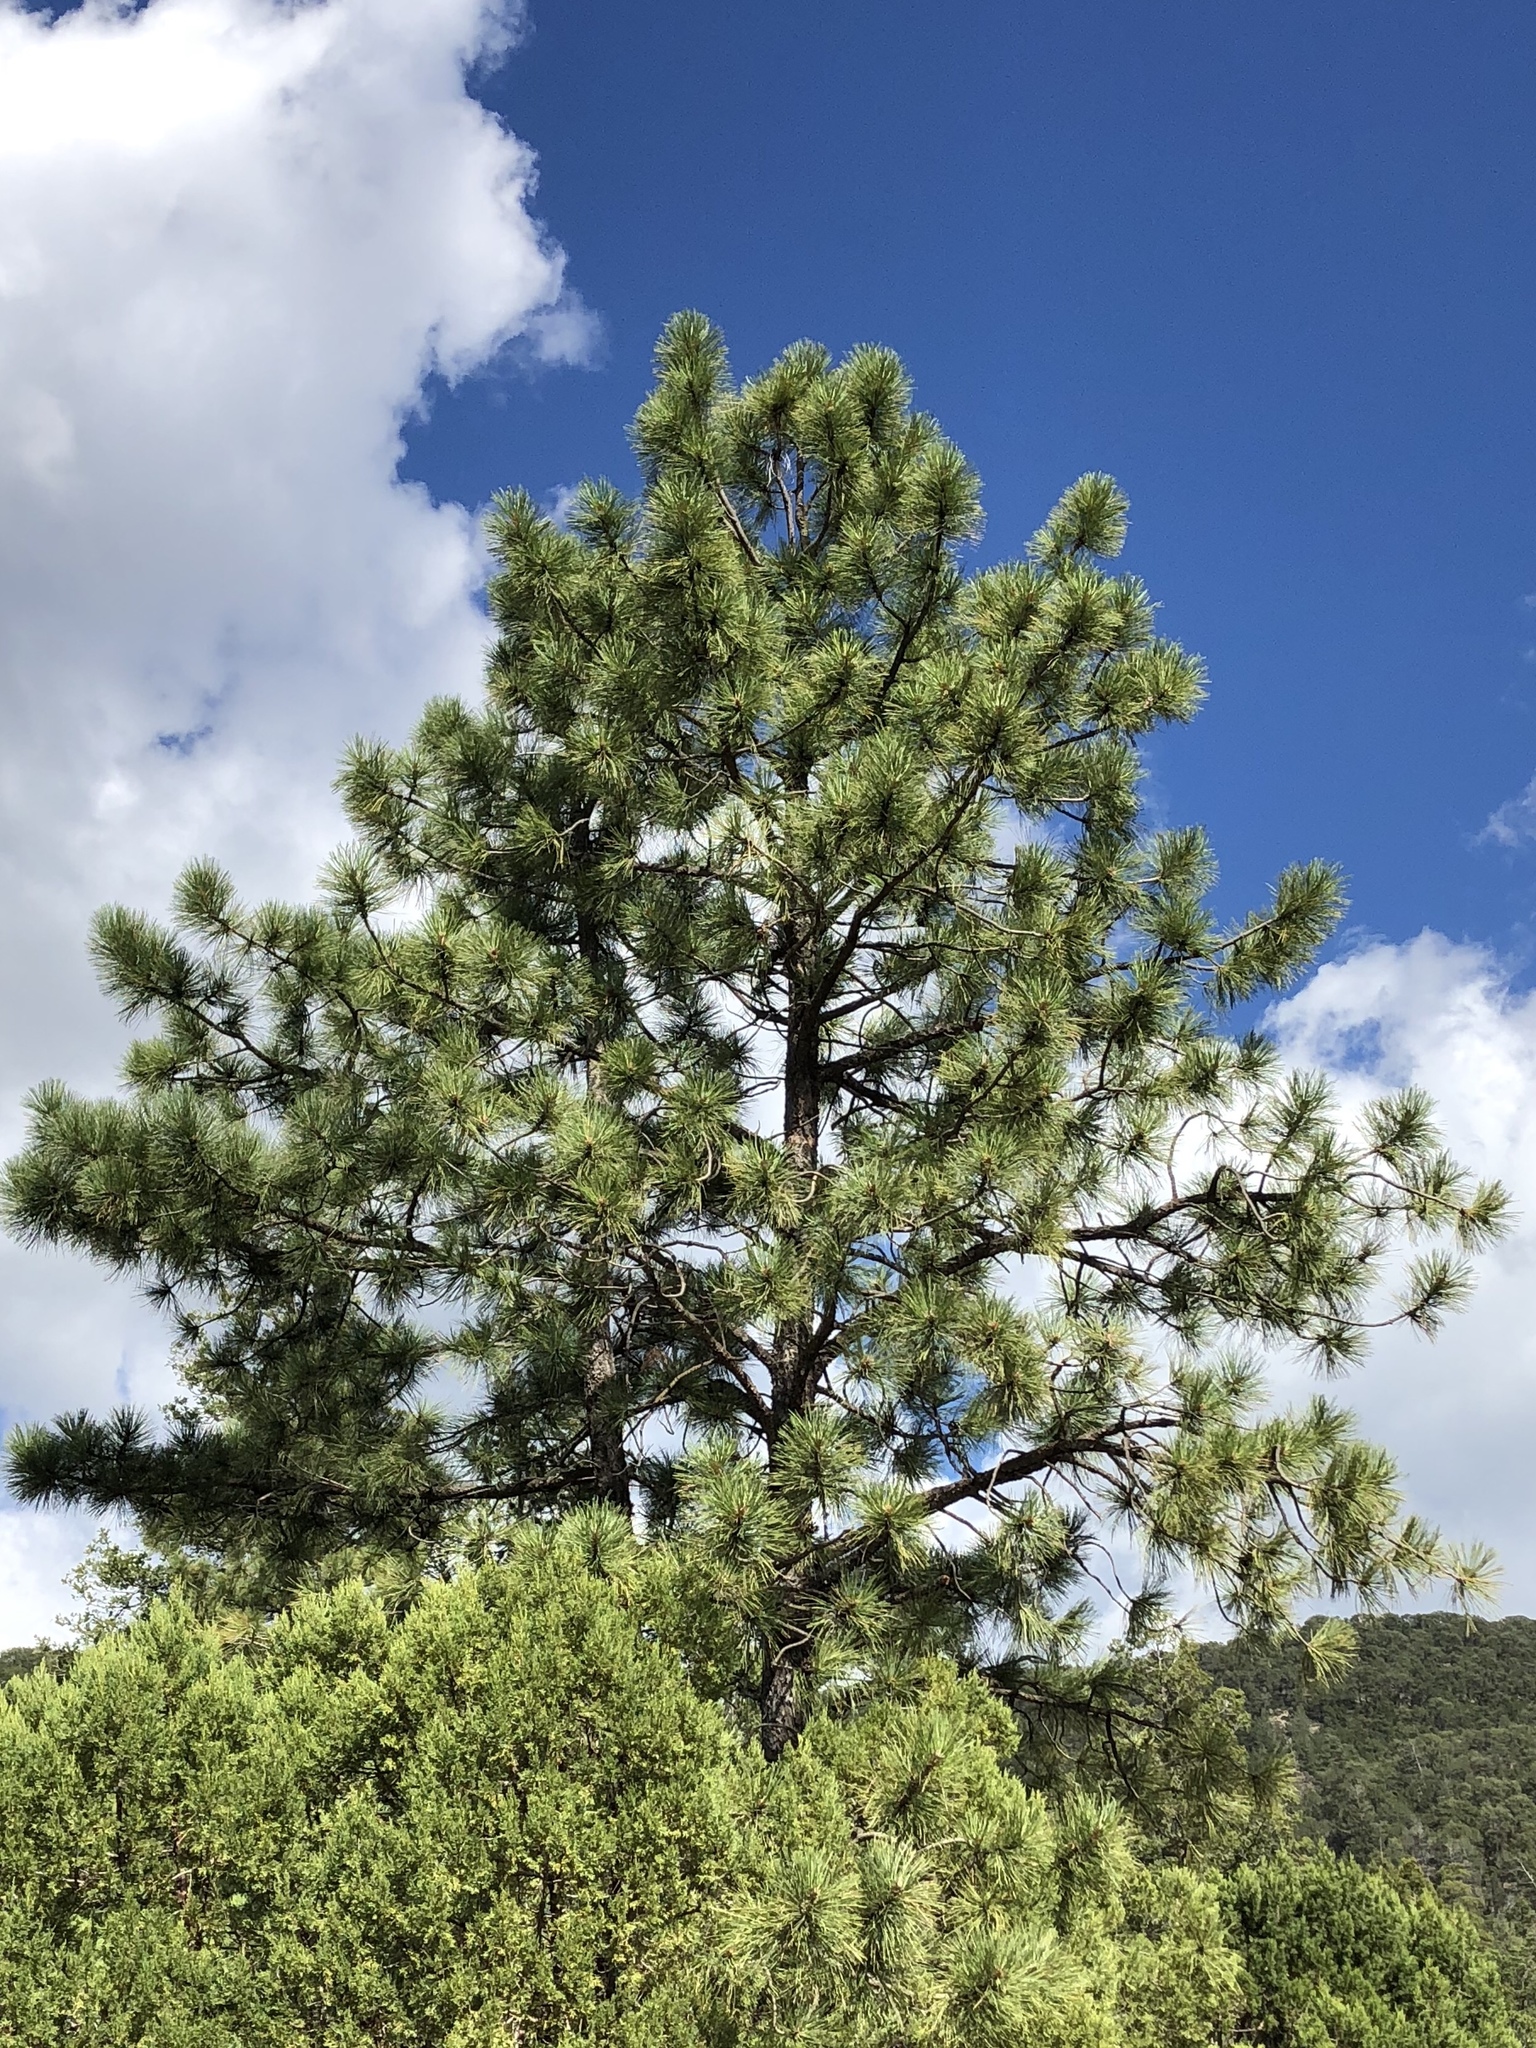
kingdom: Plantae
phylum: Tracheophyta
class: Pinopsida
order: Pinales
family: Pinaceae
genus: Pinus
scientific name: Pinus ponderosa
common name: Western yellow-pine
